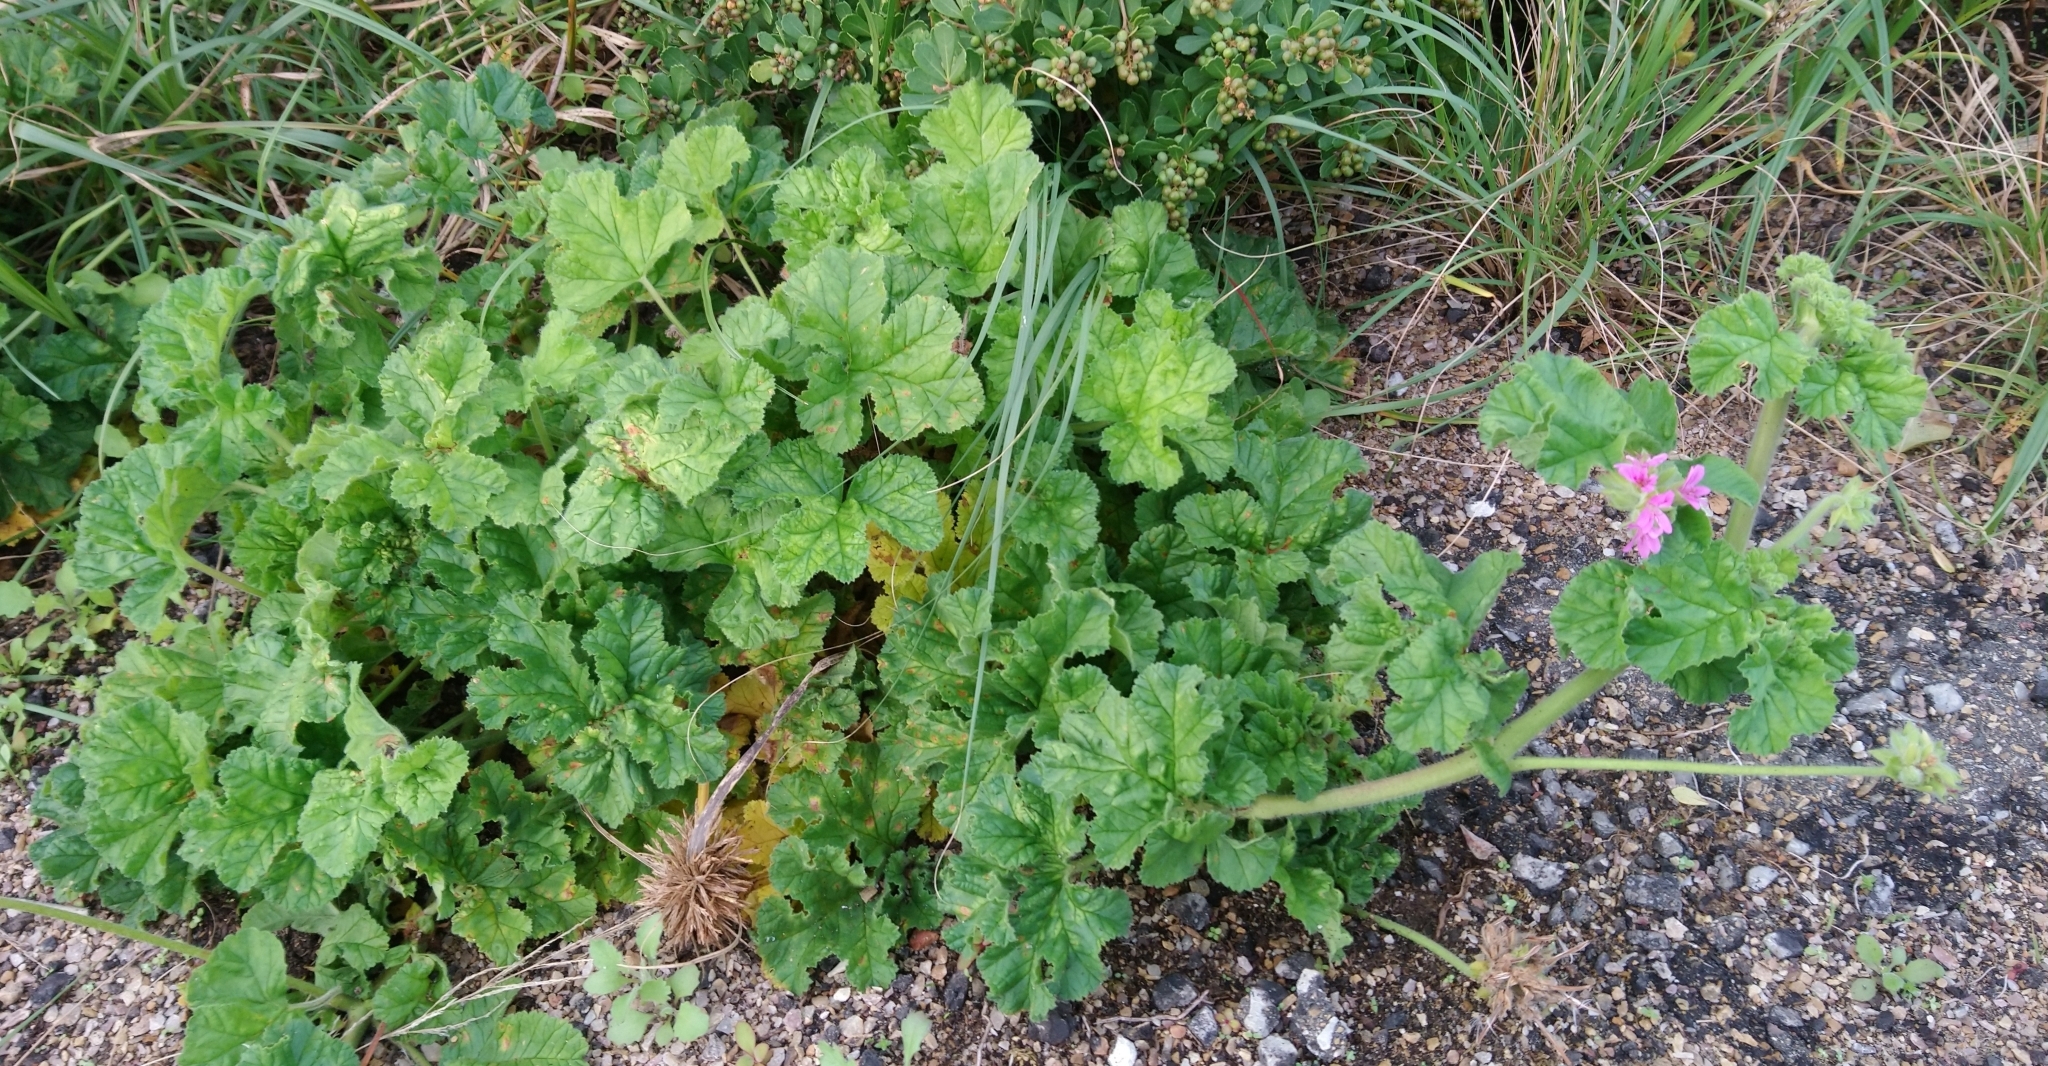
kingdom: Plantae
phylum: Tracheophyta
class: Magnoliopsida
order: Geraniales
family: Geraniaceae
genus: Pelargonium
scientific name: Pelargonium capitatum
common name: Rose scented geranium
